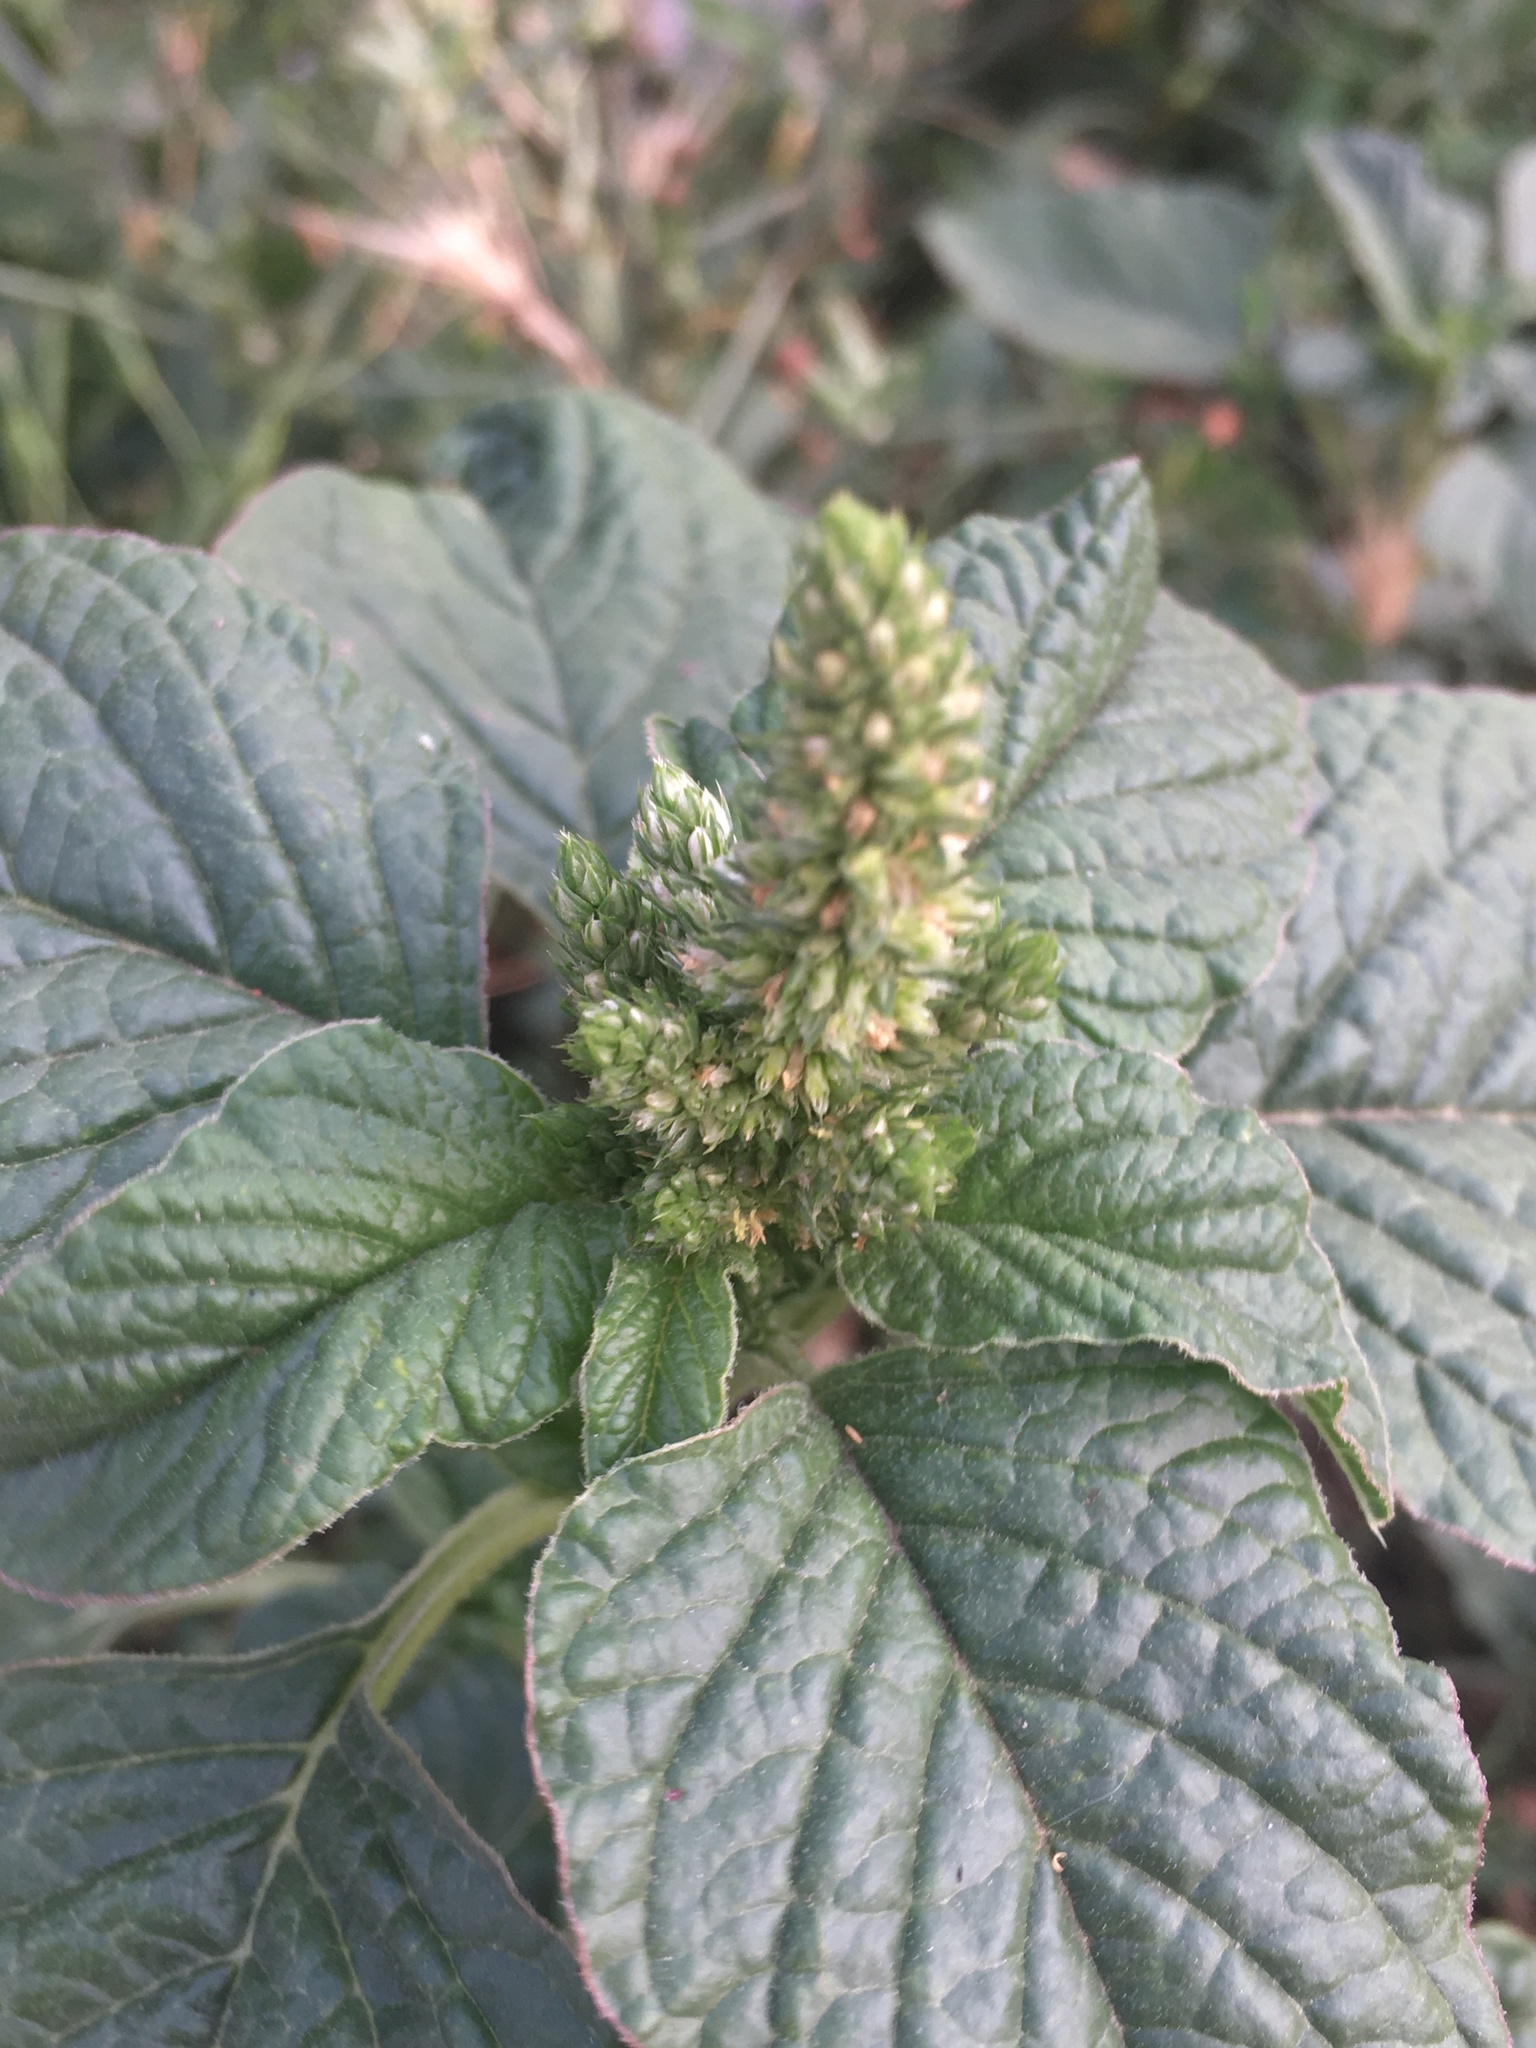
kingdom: Plantae
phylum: Tracheophyta
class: Magnoliopsida
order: Caryophyllales
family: Amaranthaceae
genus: Amaranthus
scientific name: Amaranthus retroflexus
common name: Redroot amaranth
